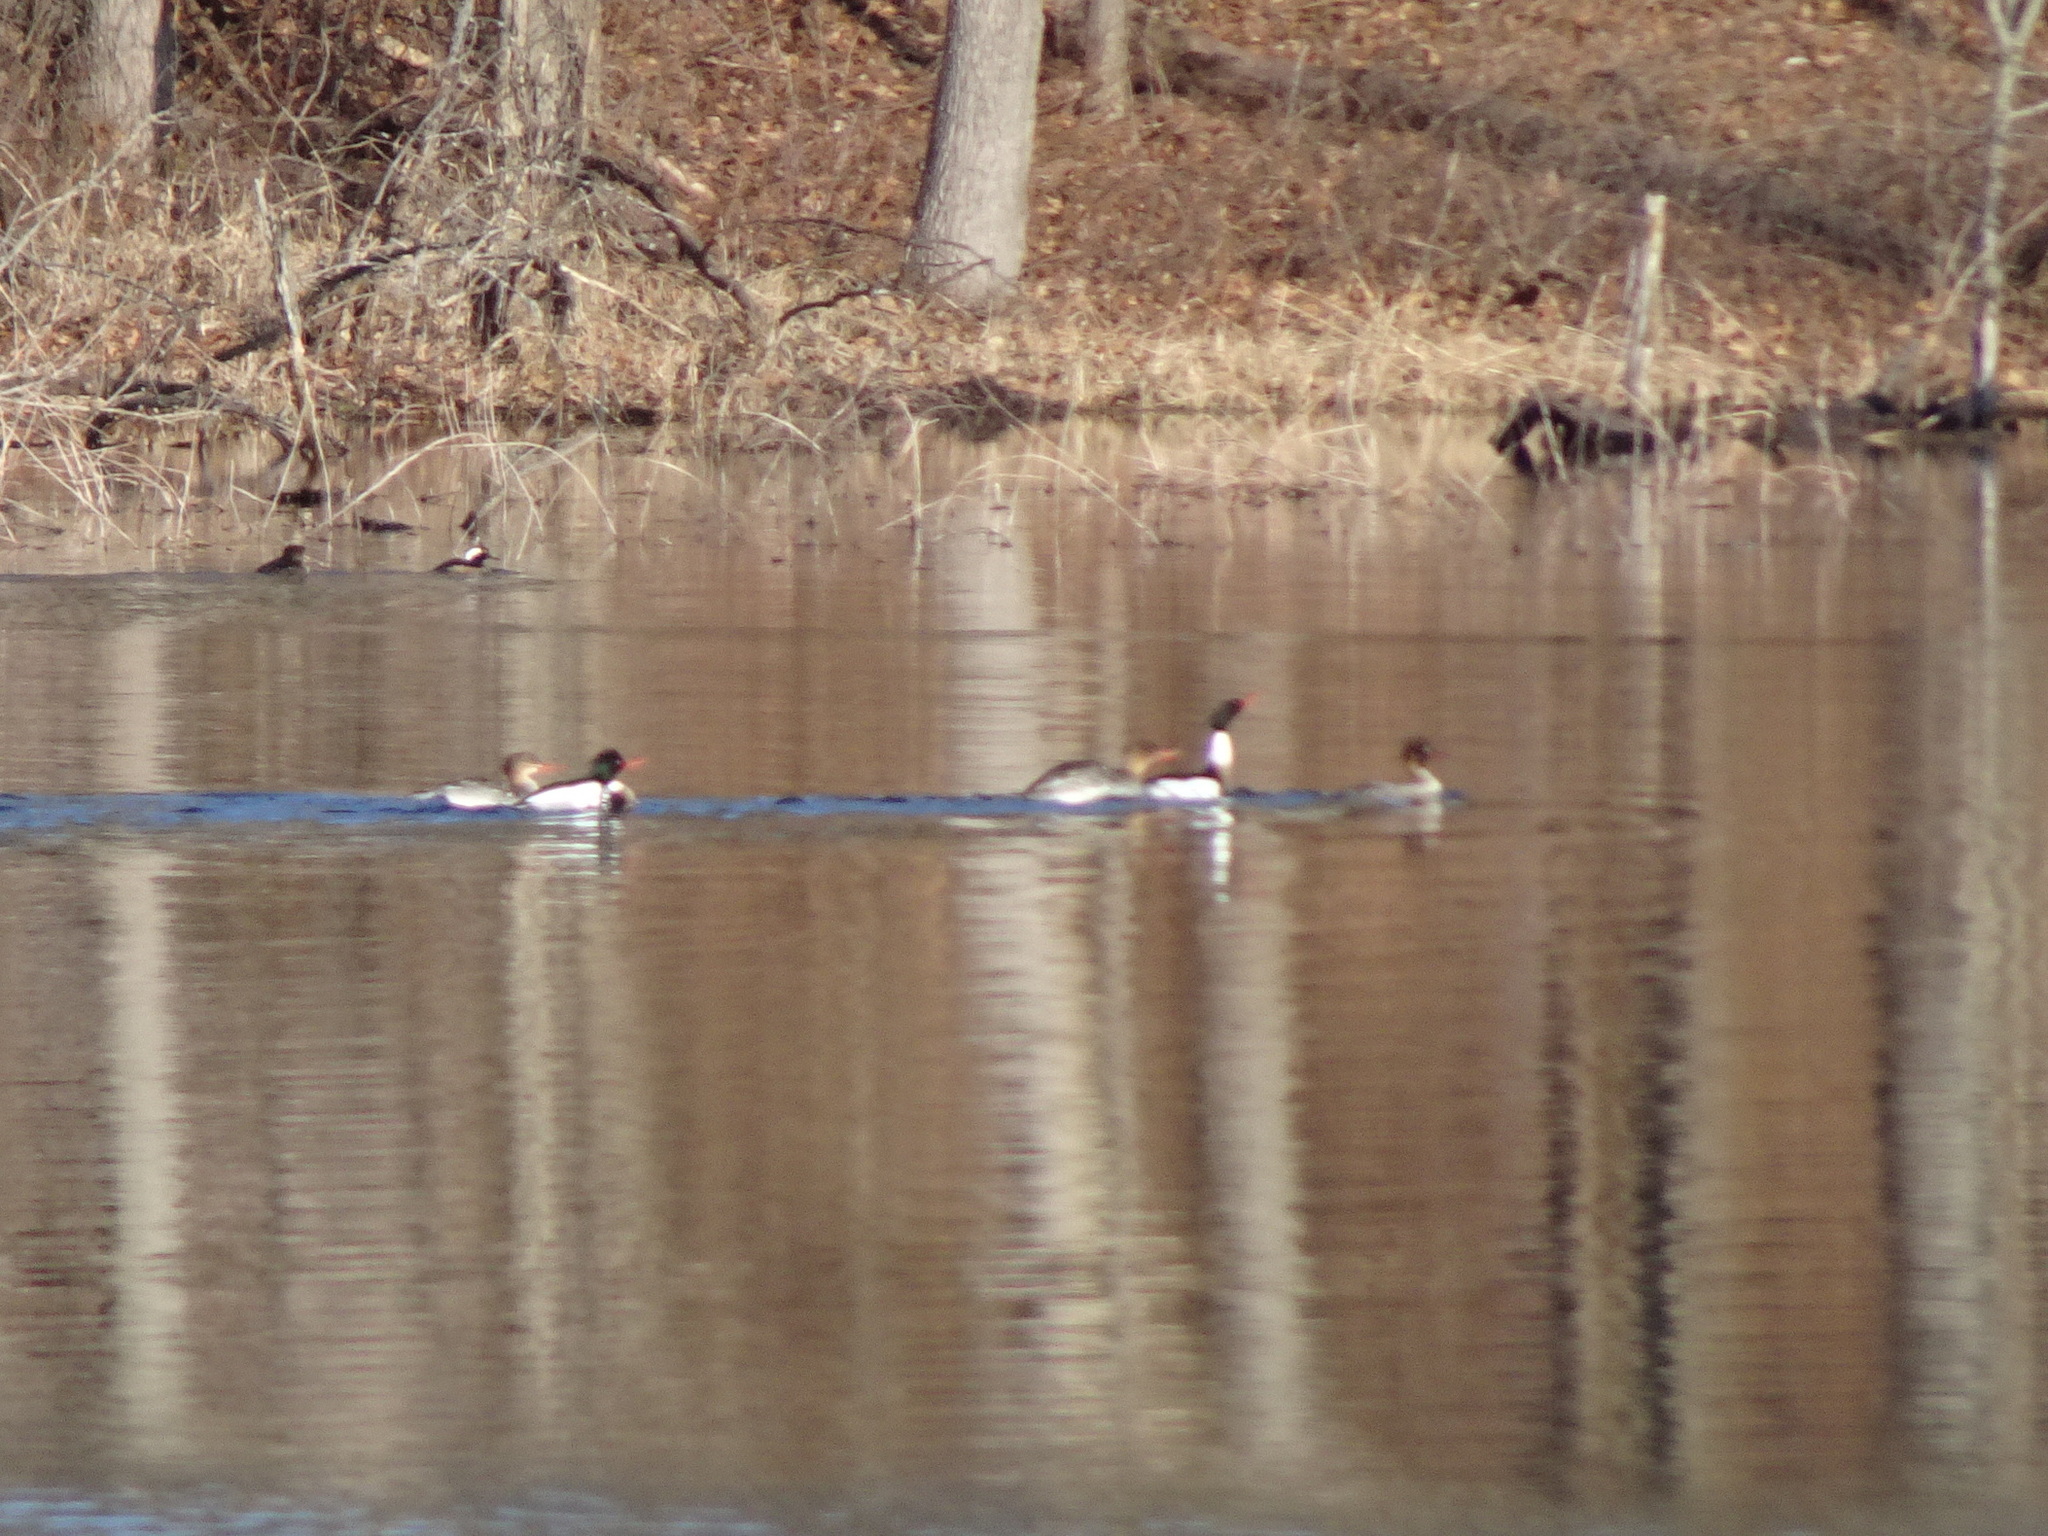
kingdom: Animalia
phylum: Chordata
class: Aves
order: Anseriformes
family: Anatidae
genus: Mergus
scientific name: Mergus serrator
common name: Red-breasted merganser
